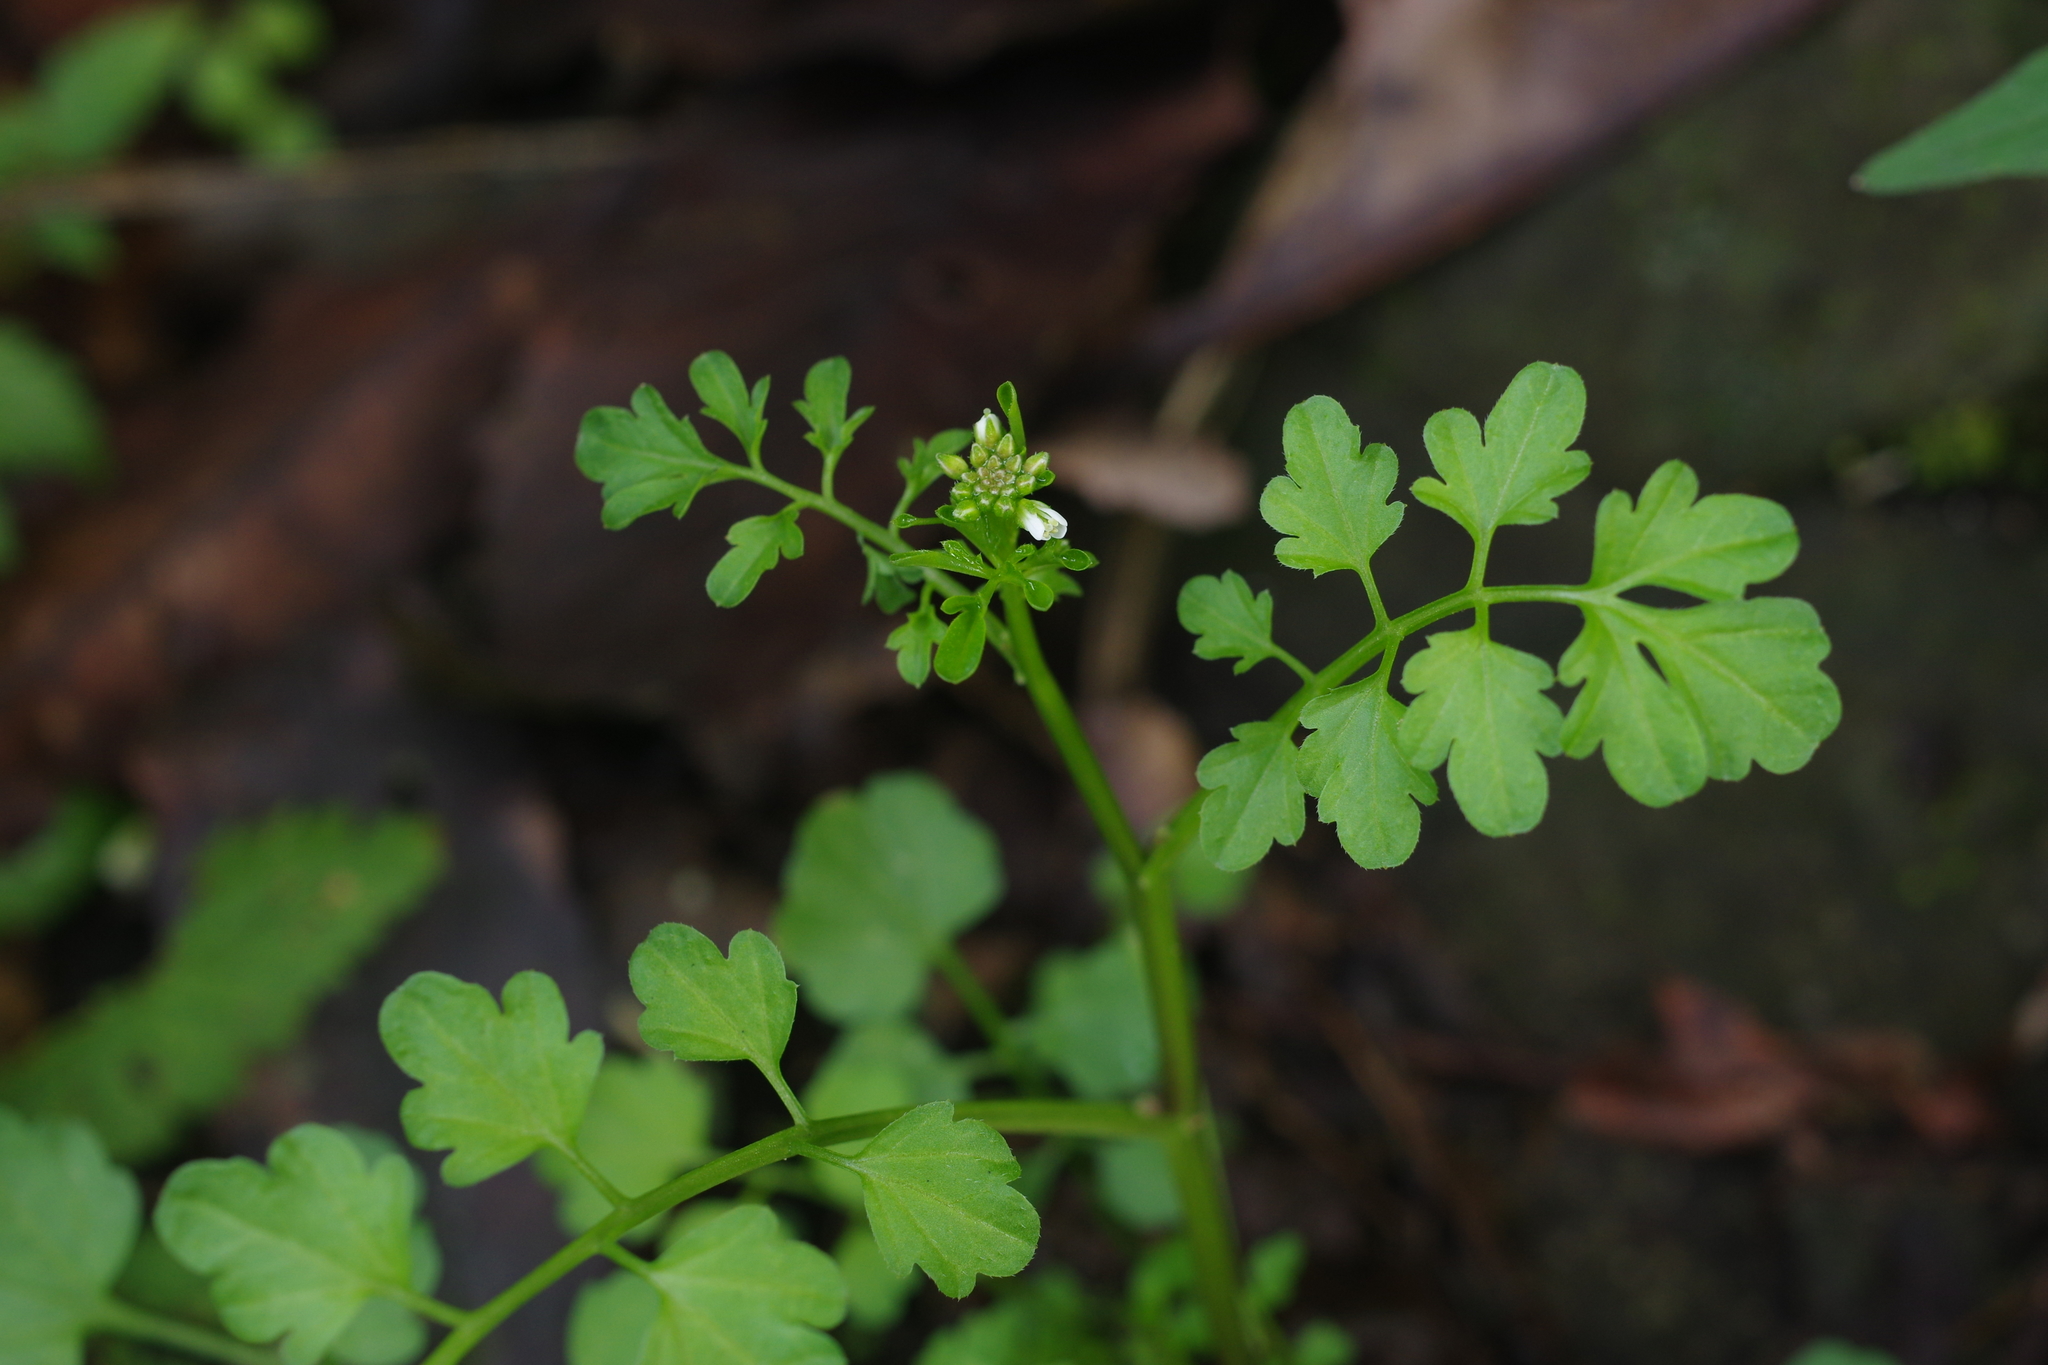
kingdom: Plantae
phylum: Tracheophyta
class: Magnoliopsida
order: Brassicales
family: Brassicaceae
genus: Cardamine
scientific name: Cardamine flexuosa
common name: Woodland bittercress
